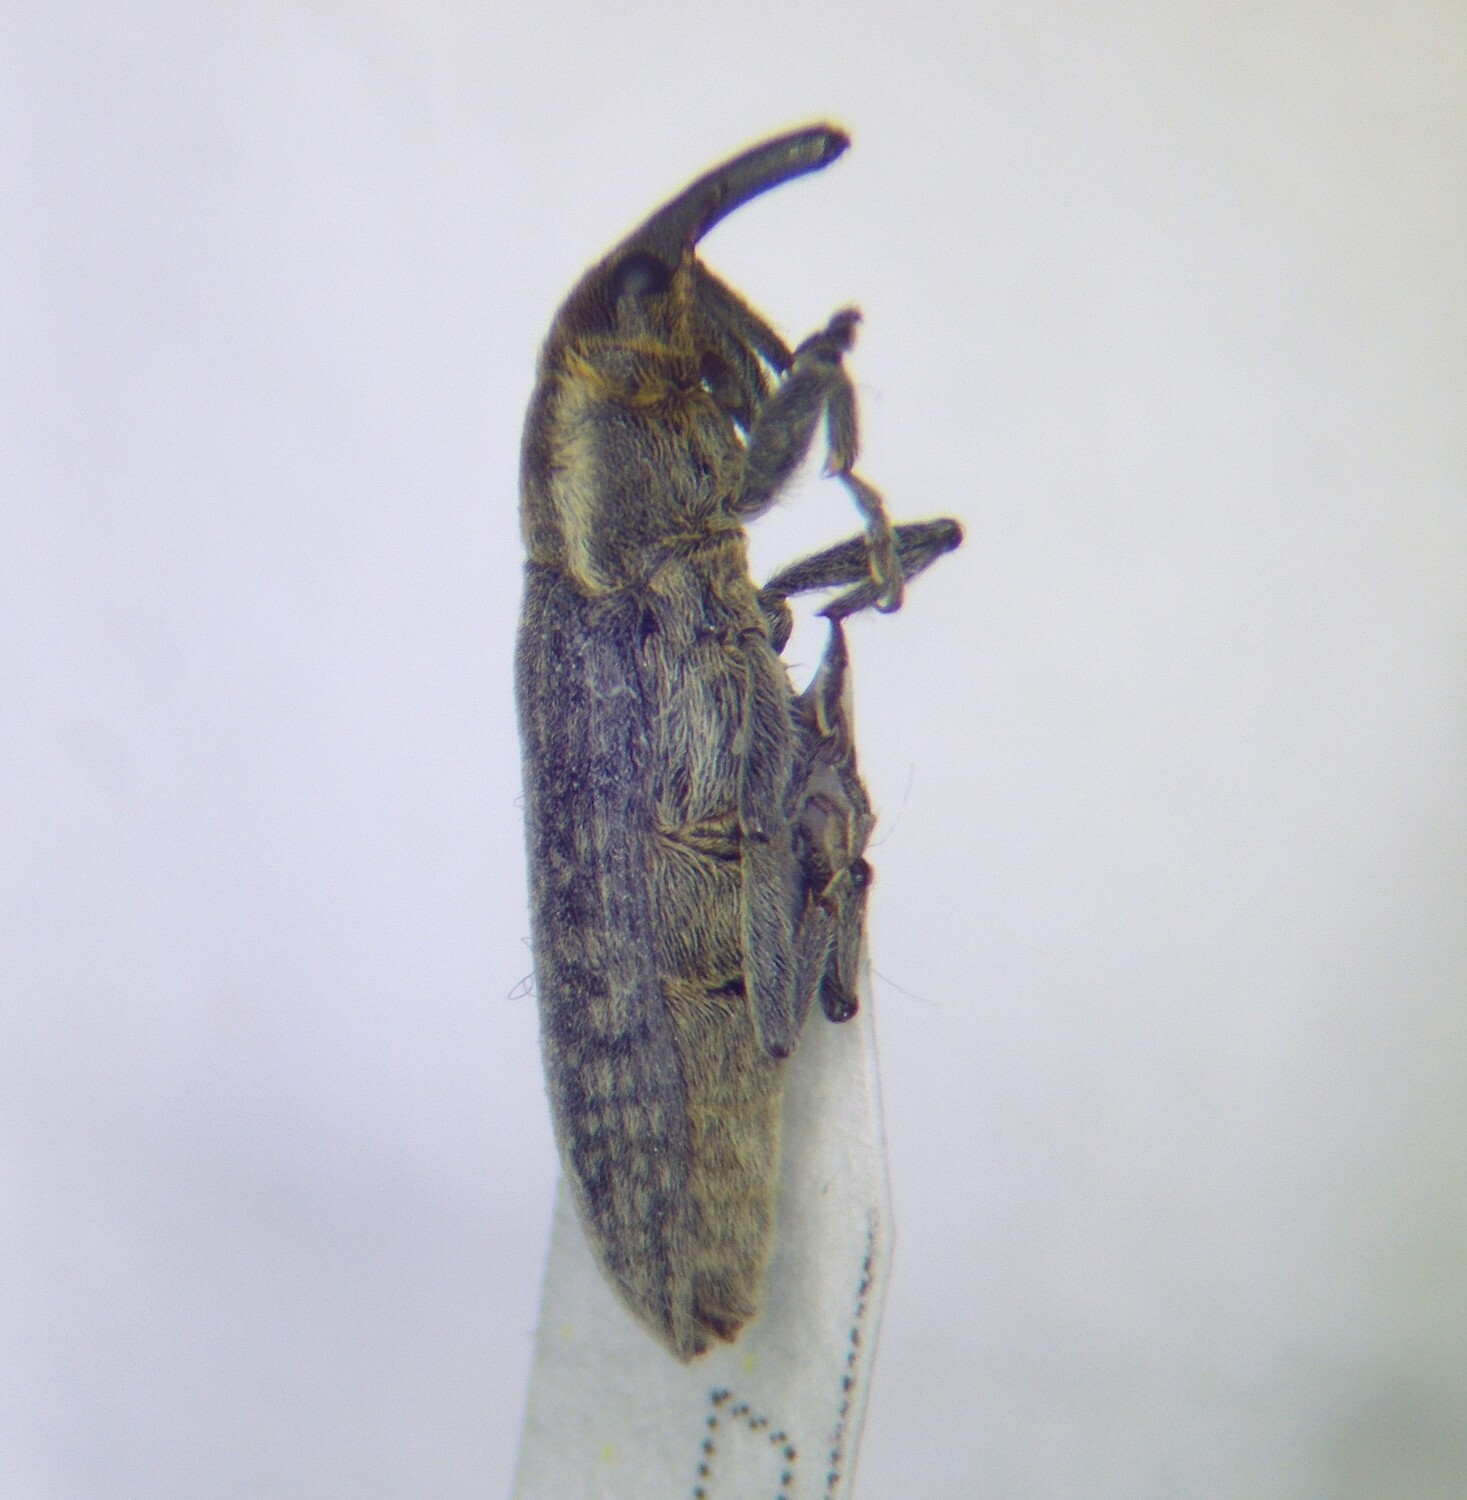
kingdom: Animalia
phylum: Arthropoda
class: Insecta
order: Coleoptera
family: Curculionidae
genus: Lixus
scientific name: Lixus filiformis
